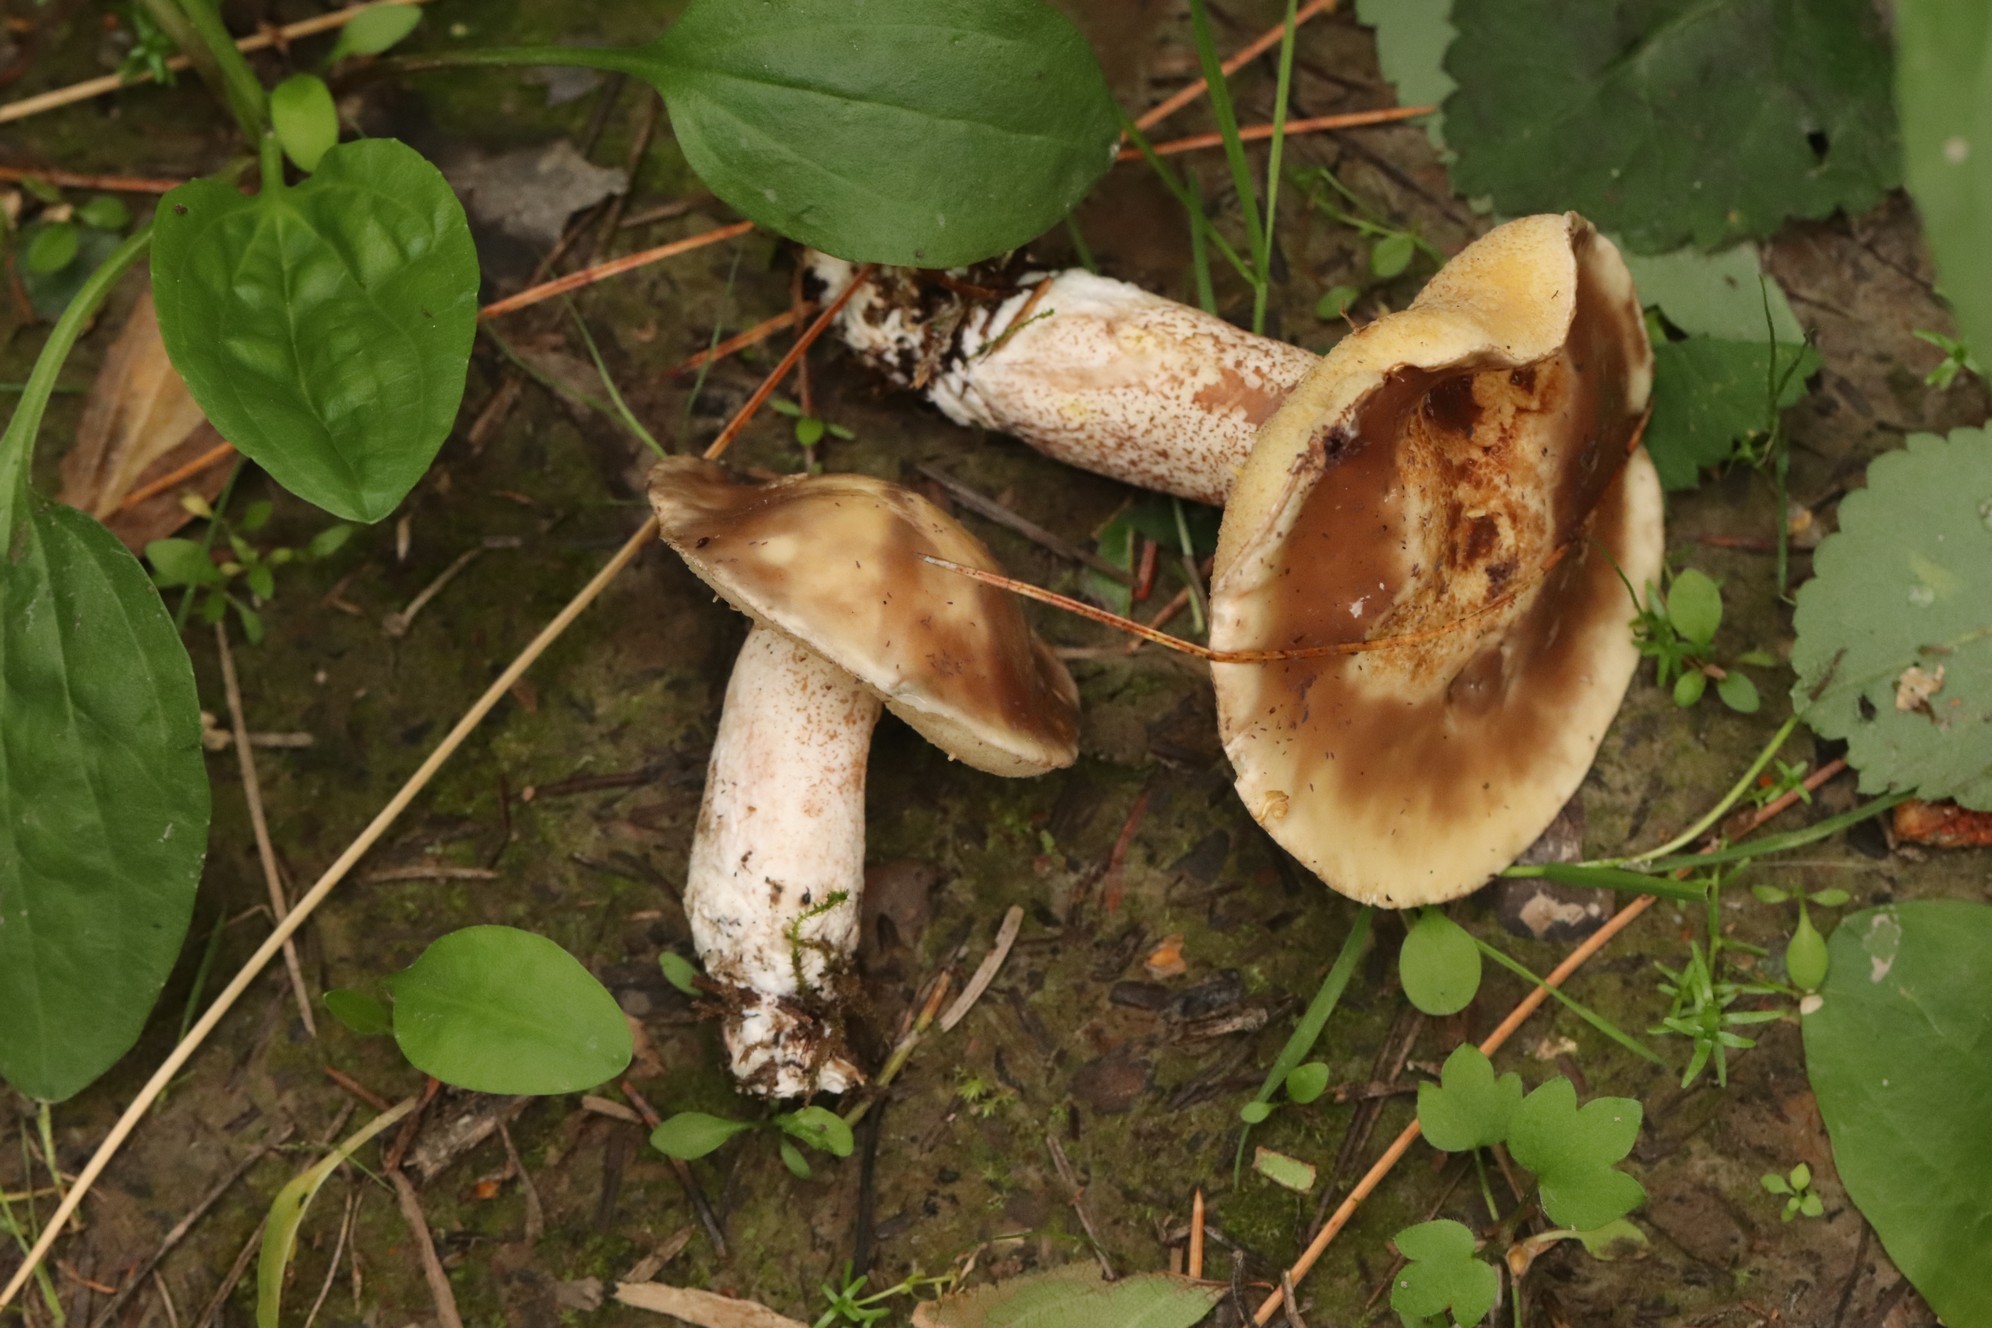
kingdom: Fungi
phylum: Basidiomycota
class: Agaricomycetes
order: Boletales
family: Suillaceae
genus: Suillus
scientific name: Suillus placidus
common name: Slippery white bolete
